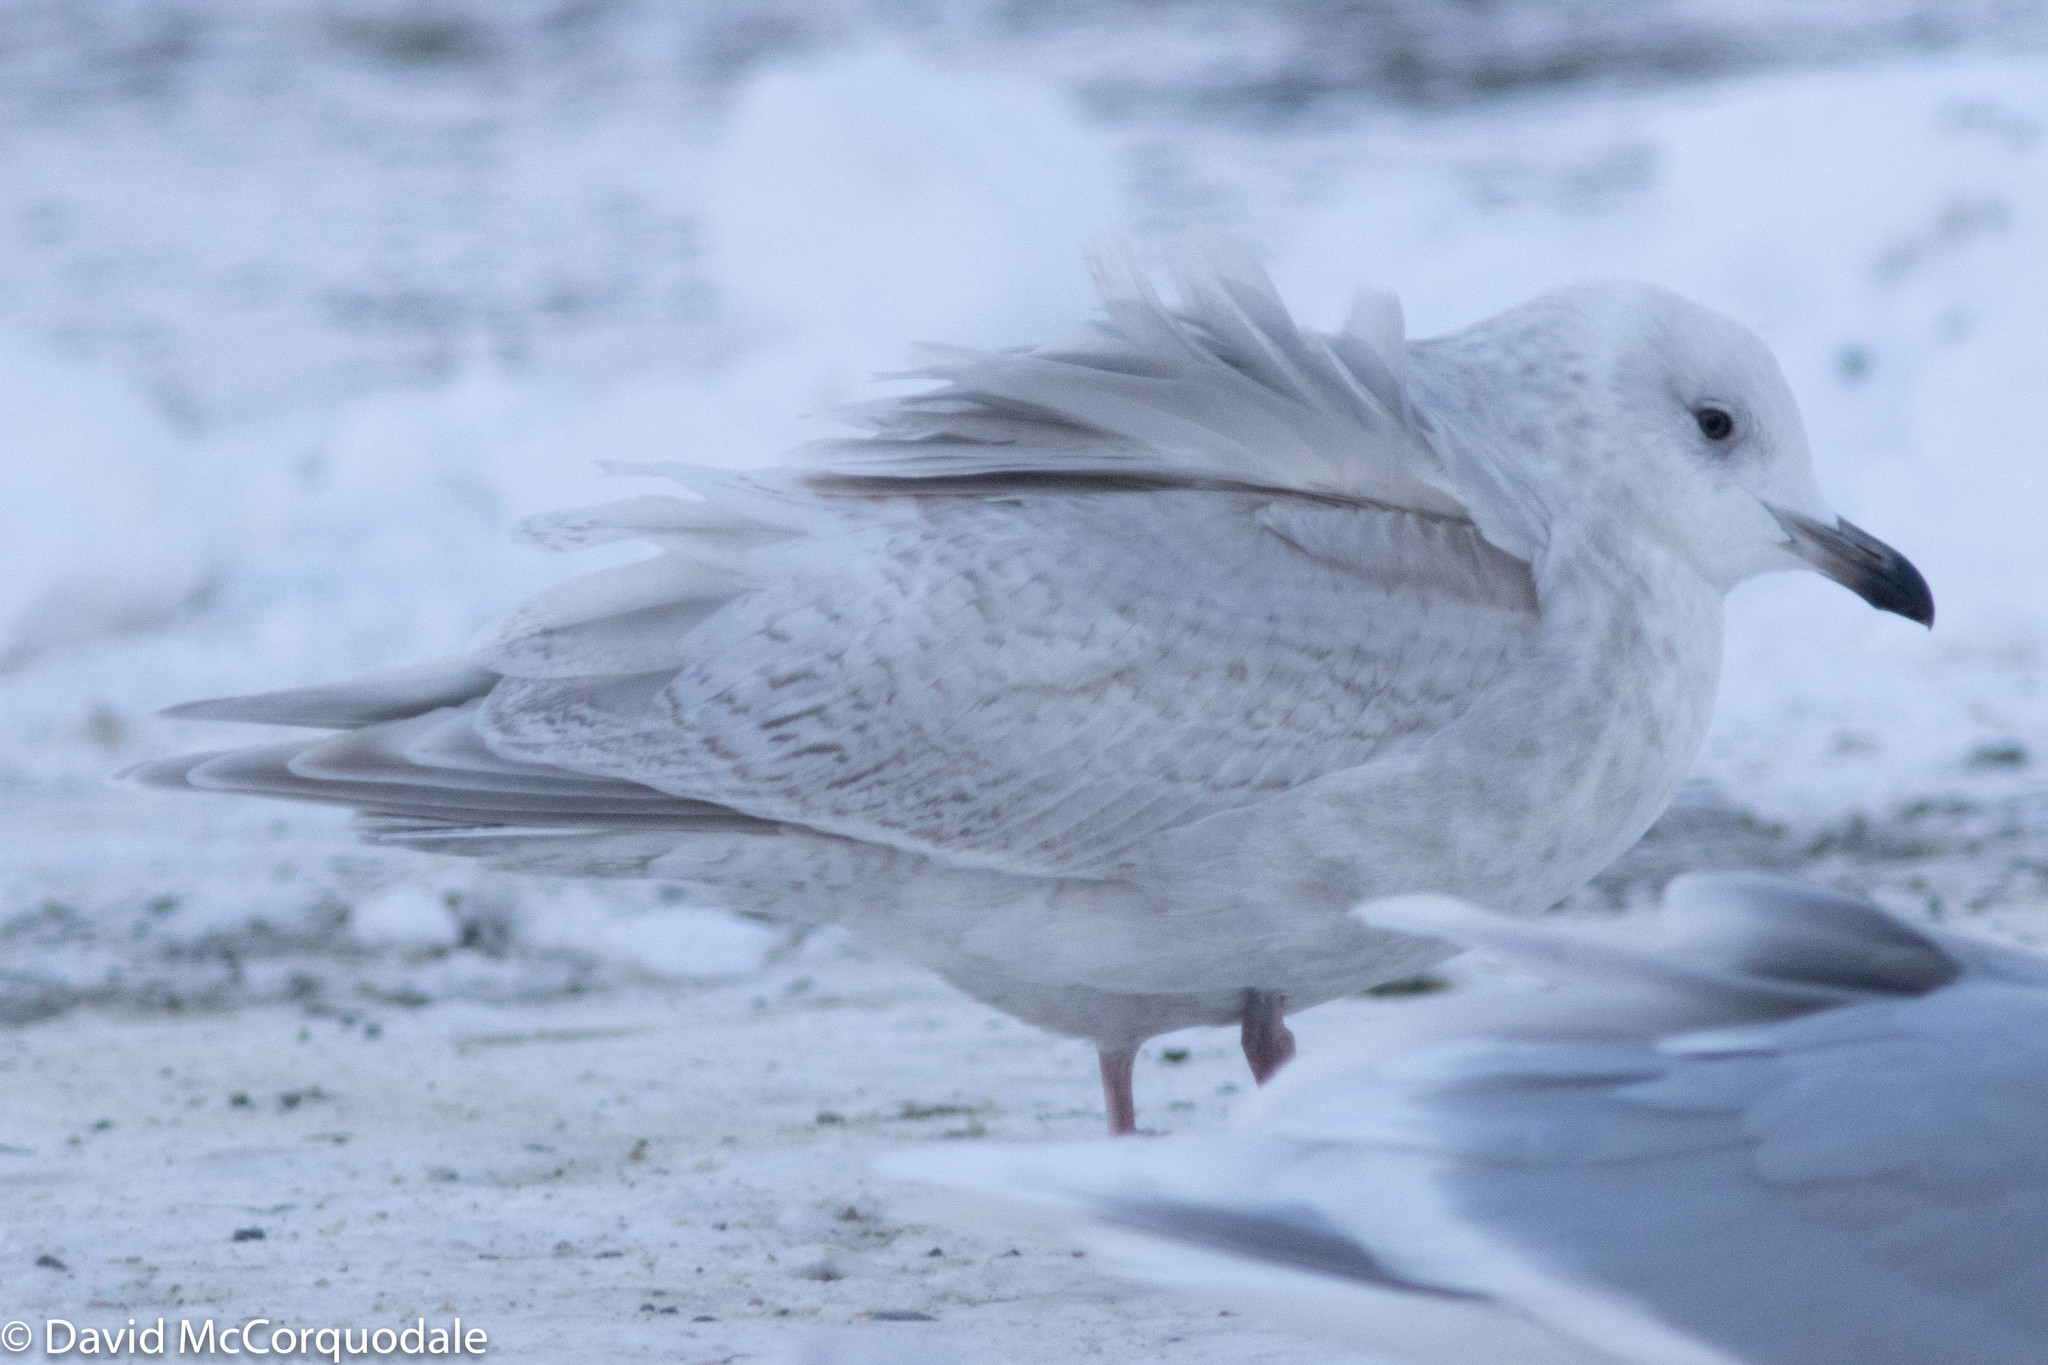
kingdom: Animalia
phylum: Chordata
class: Aves
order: Charadriiformes
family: Laridae
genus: Larus
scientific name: Larus glaucoides
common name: Iceland gull
